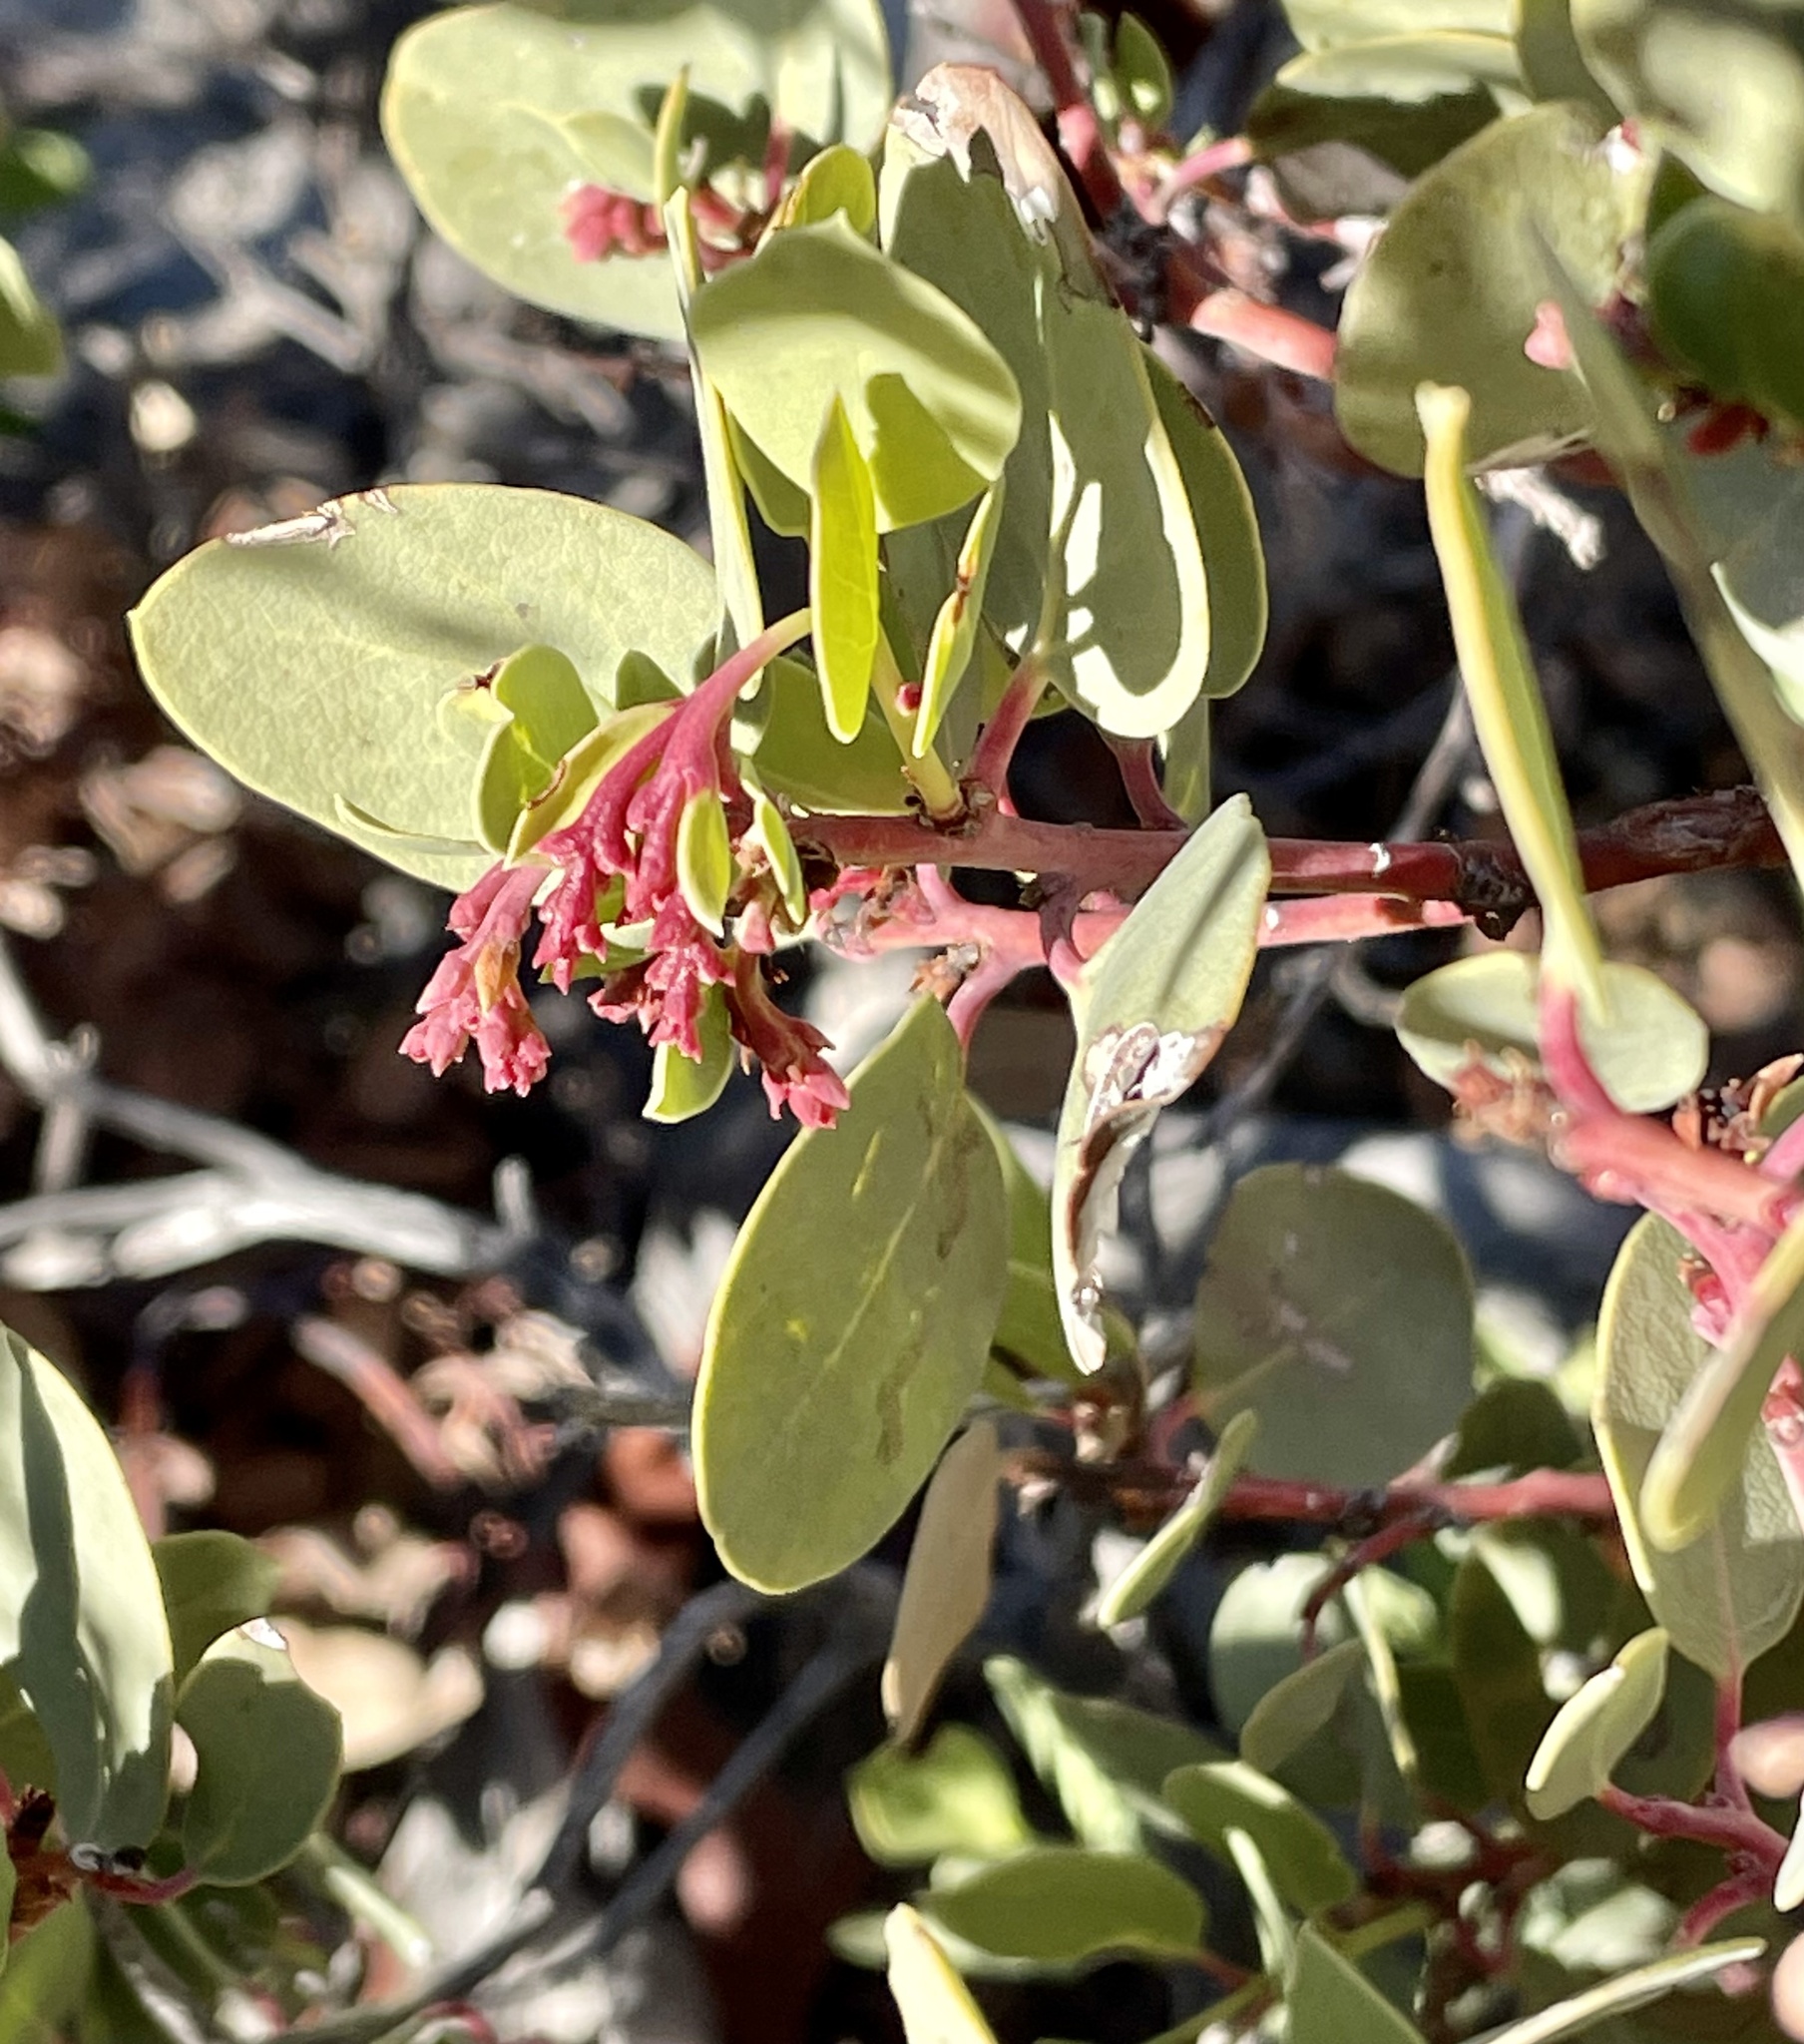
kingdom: Plantae
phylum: Tracheophyta
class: Magnoliopsida
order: Ericales
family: Ericaceae
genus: Arctostaphylos
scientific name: Arctostaphylos glauca
